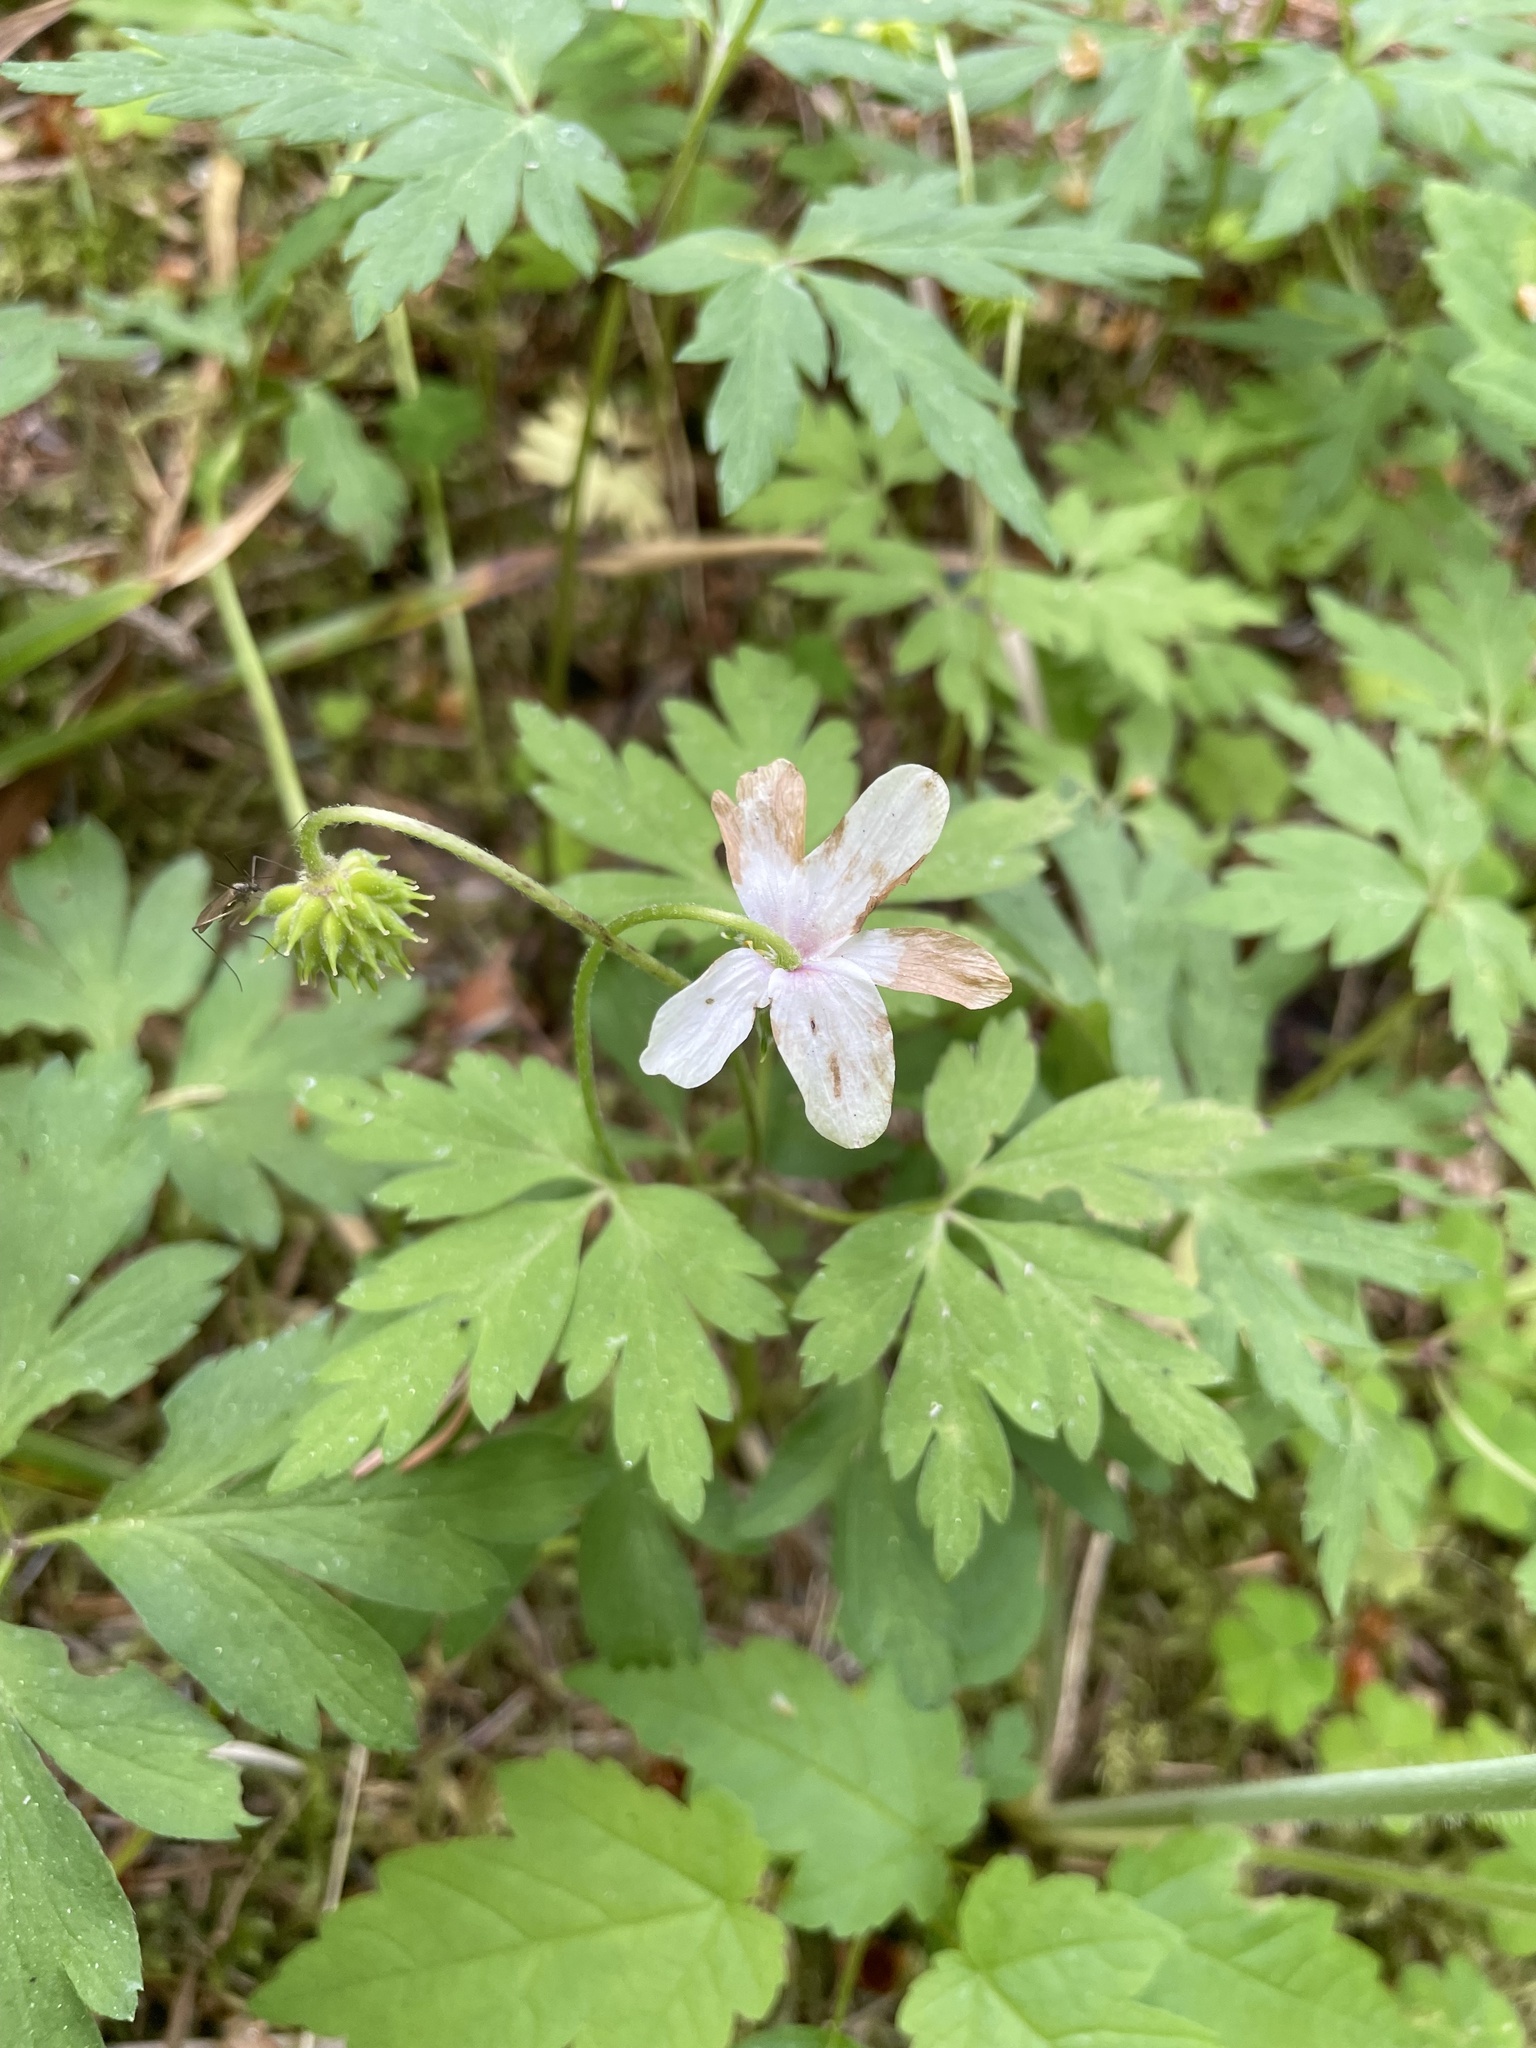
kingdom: Plantae
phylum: Tracheophyta
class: Magnoliopsida
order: Ranunculales
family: Ranunculaceae
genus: Anemone
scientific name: Anemone nemorosa
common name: Wood anemone
